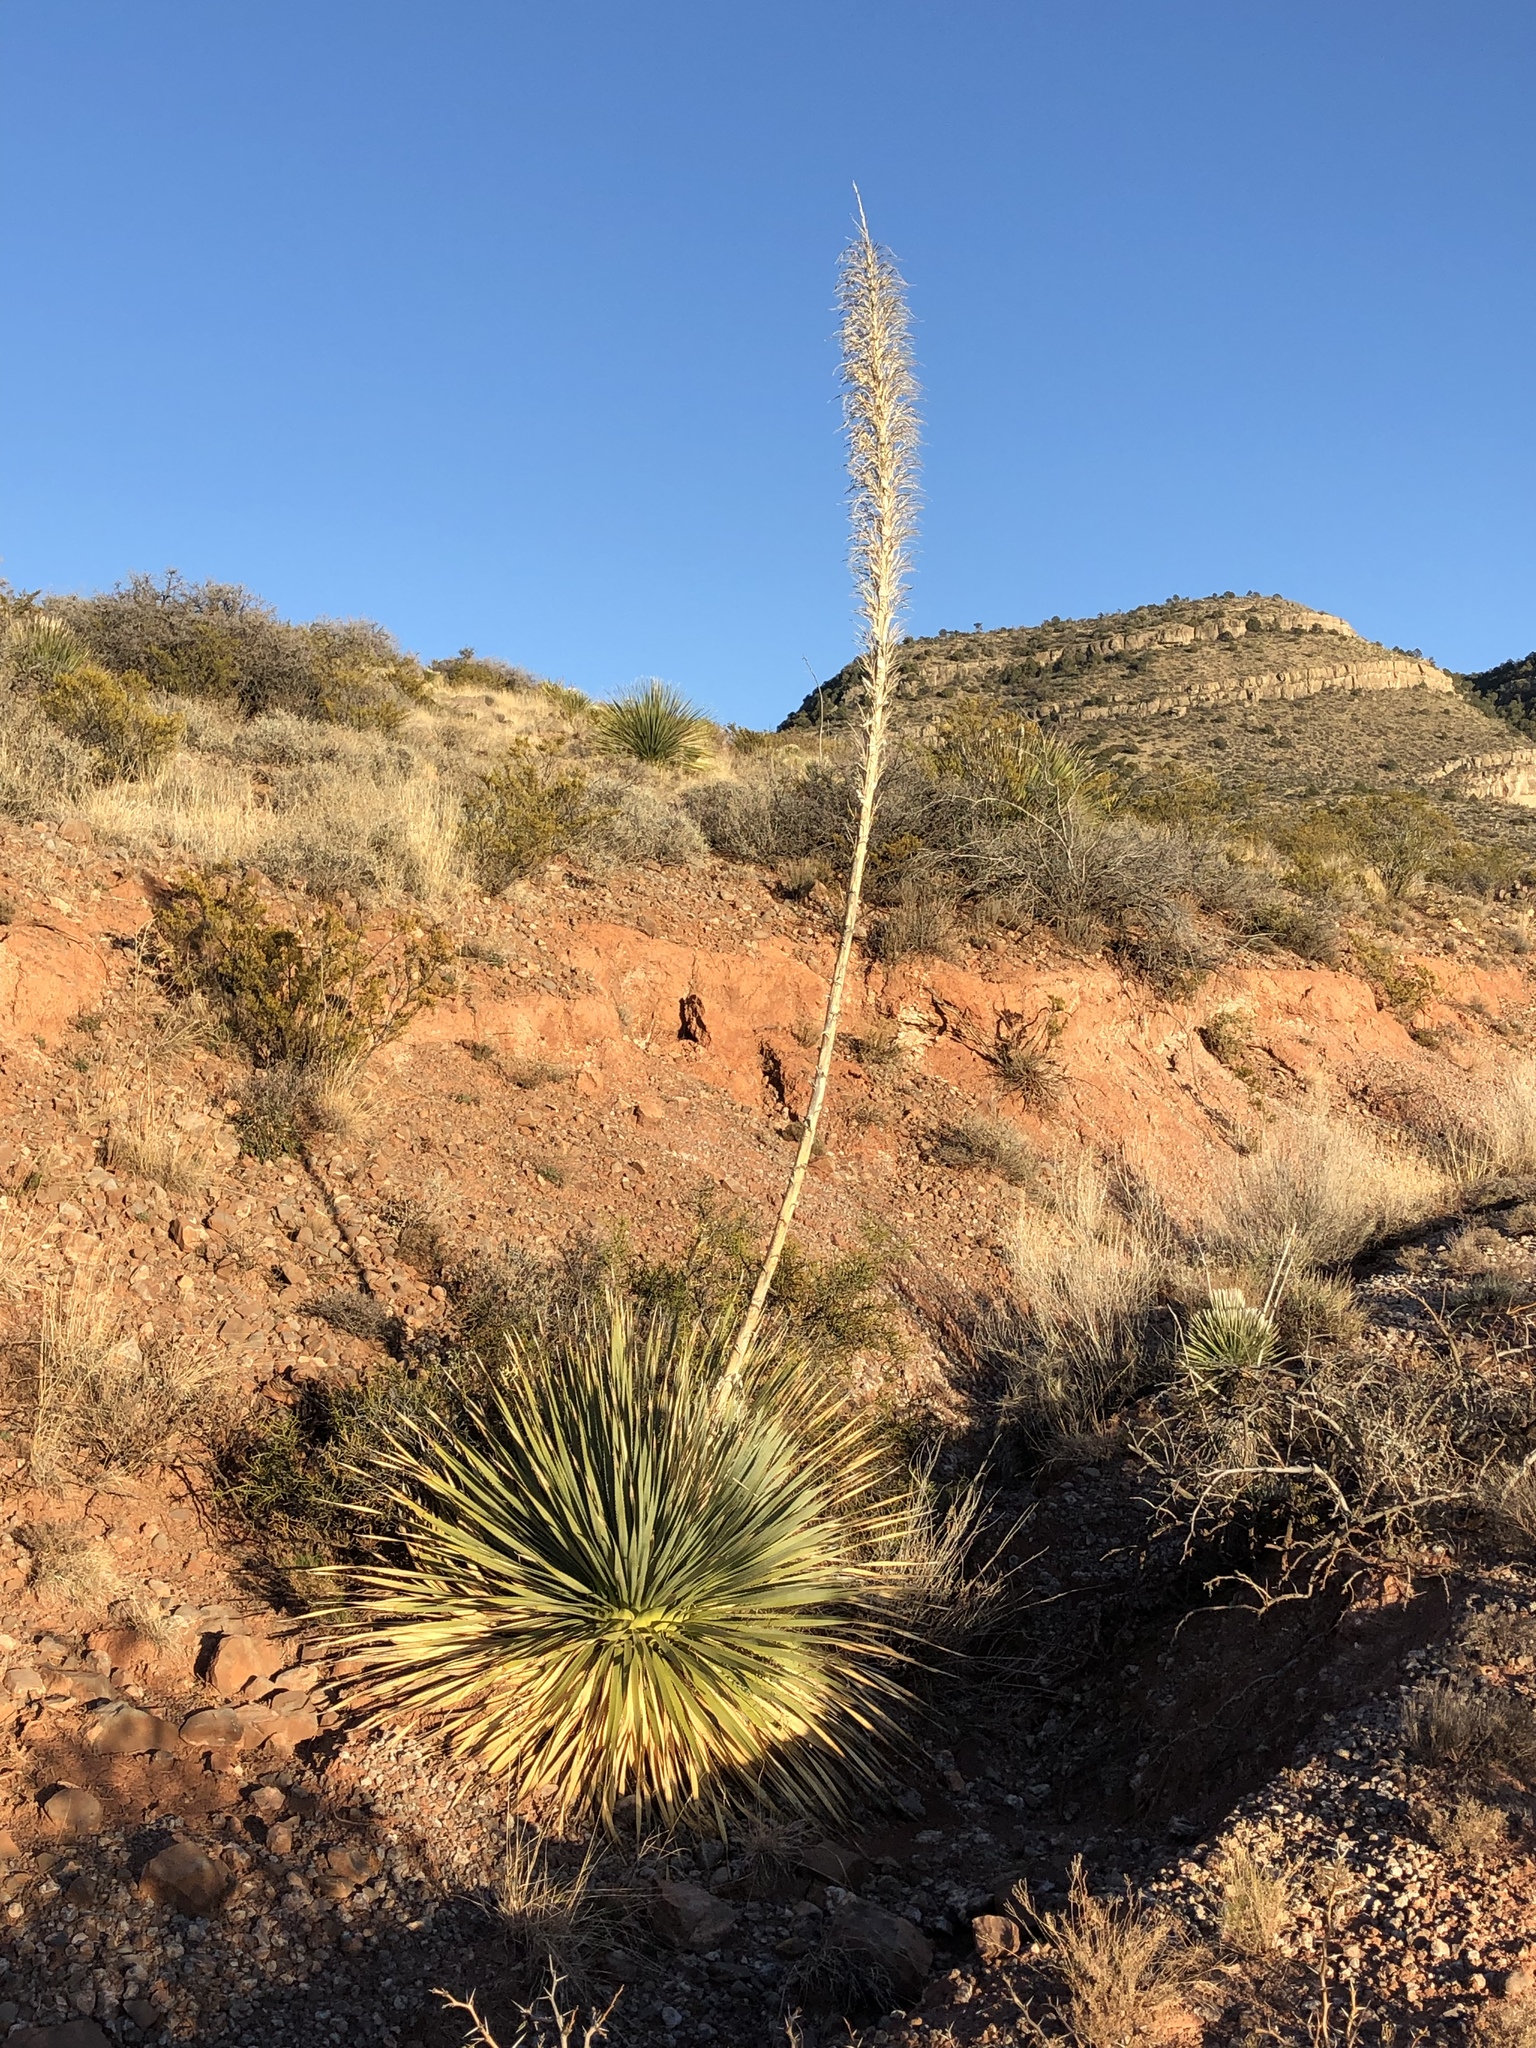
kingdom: Plantae
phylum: Tracheophyta
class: Liliopsida
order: Asparagales
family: Asparagaceae
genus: Dasylirion
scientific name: Dasylirion wheeleri
